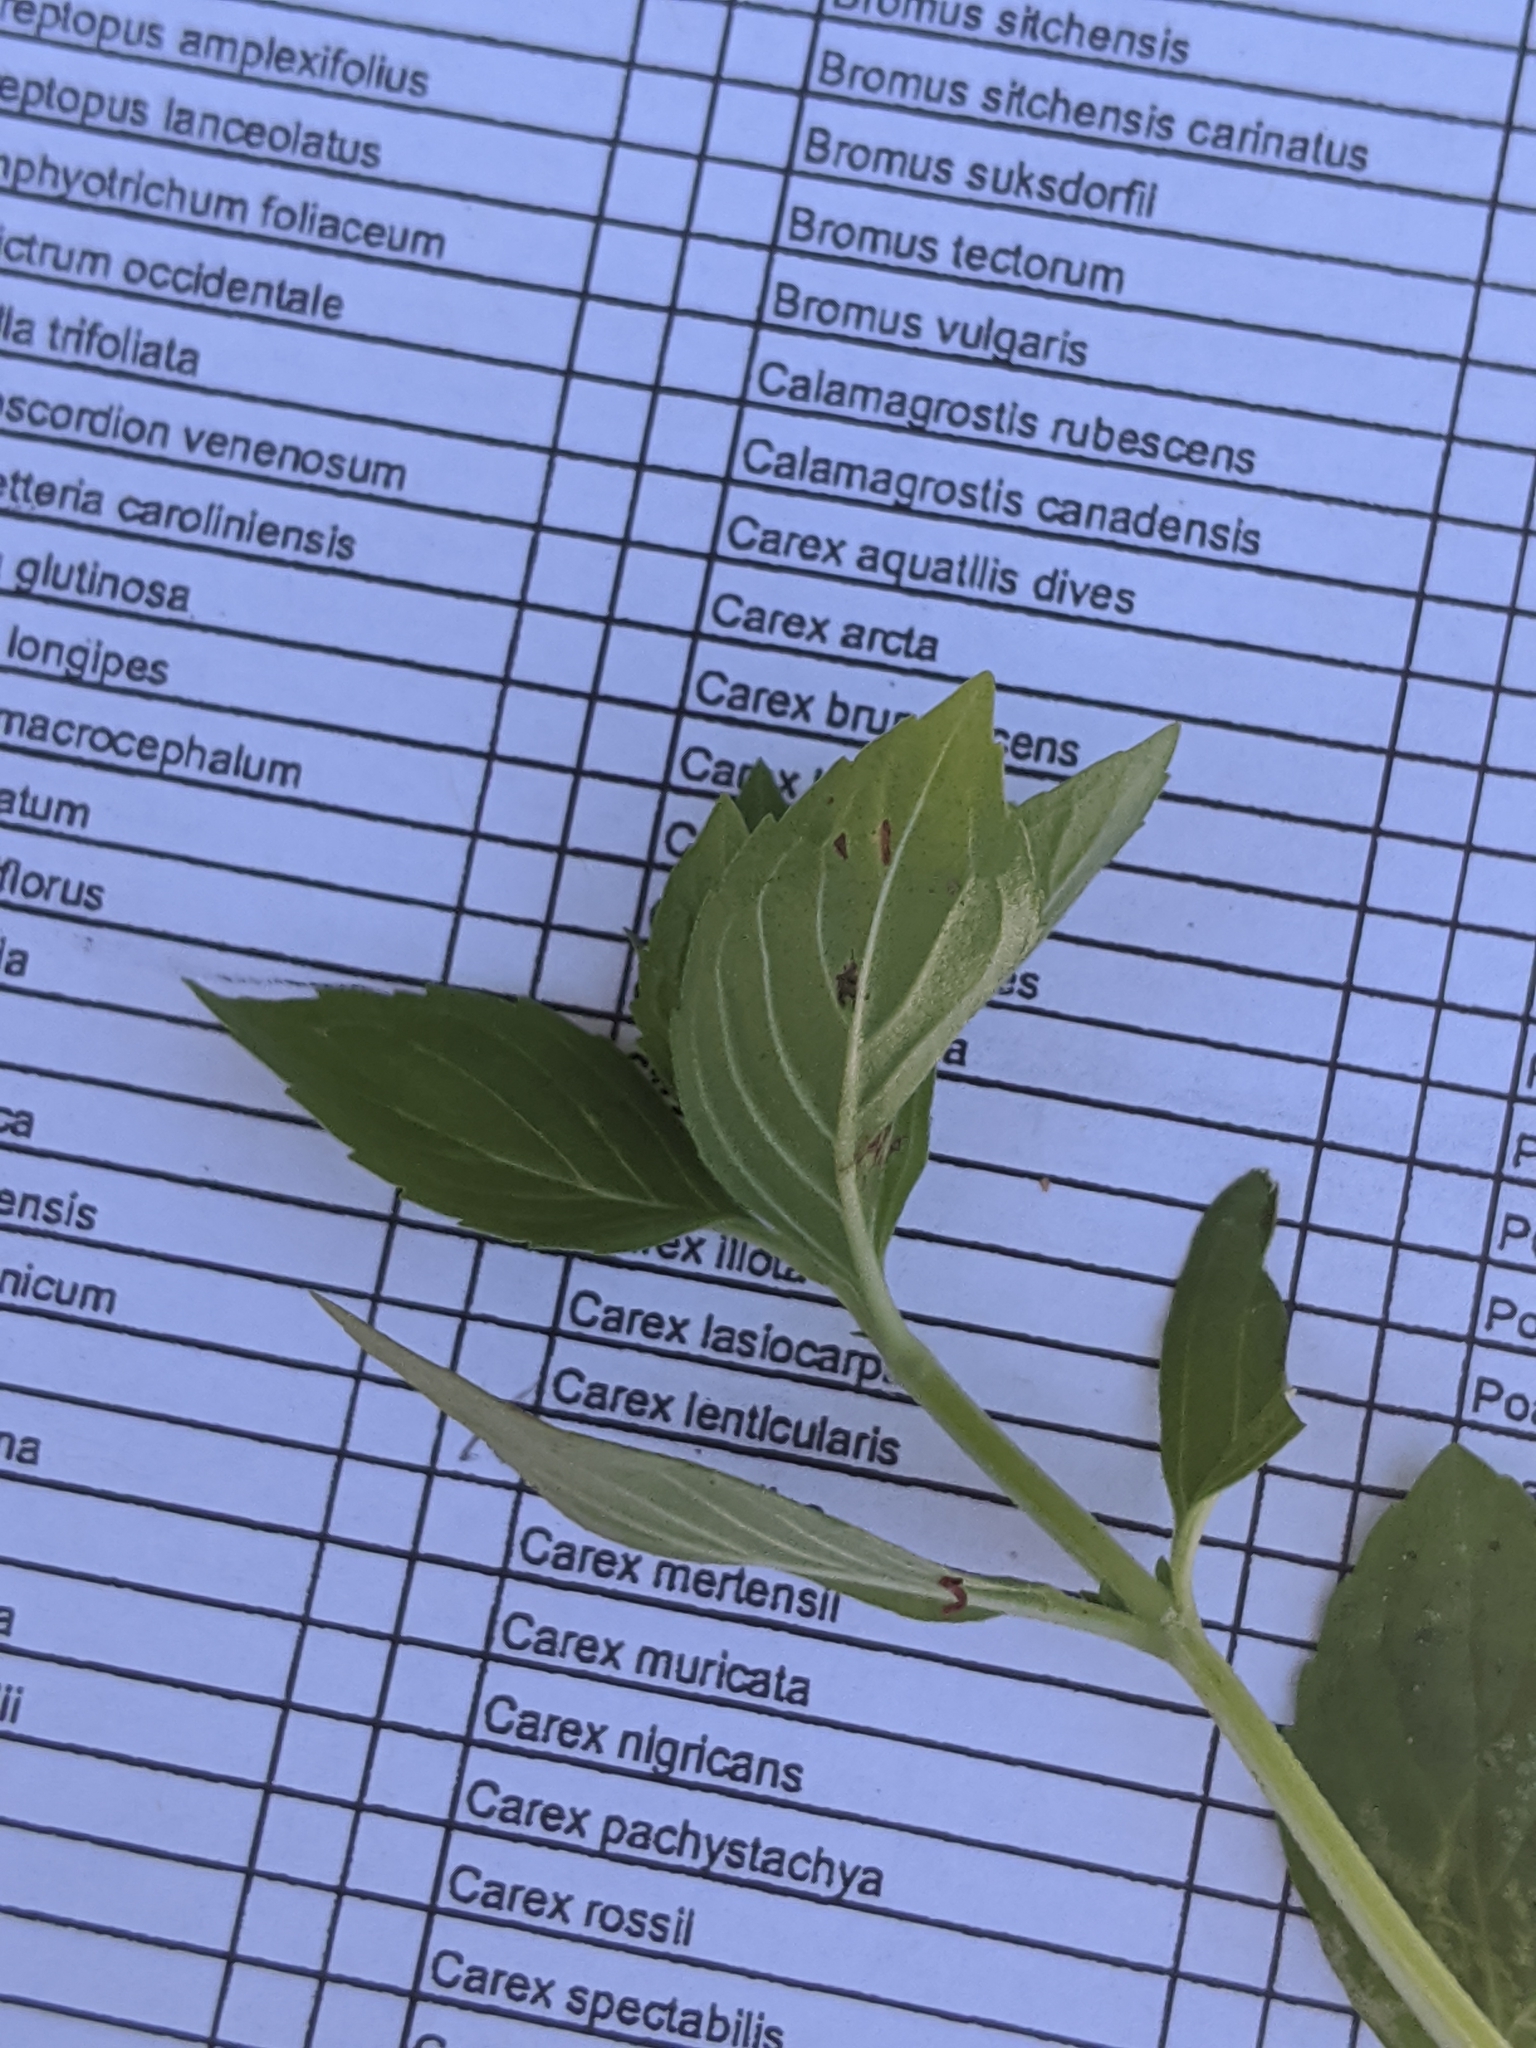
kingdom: Plantae
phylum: Tracheophyta
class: Magnoliopsida
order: Lamiales
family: Lamiaceae
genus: Mentha
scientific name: Mentha canadensis
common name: American corn mint
